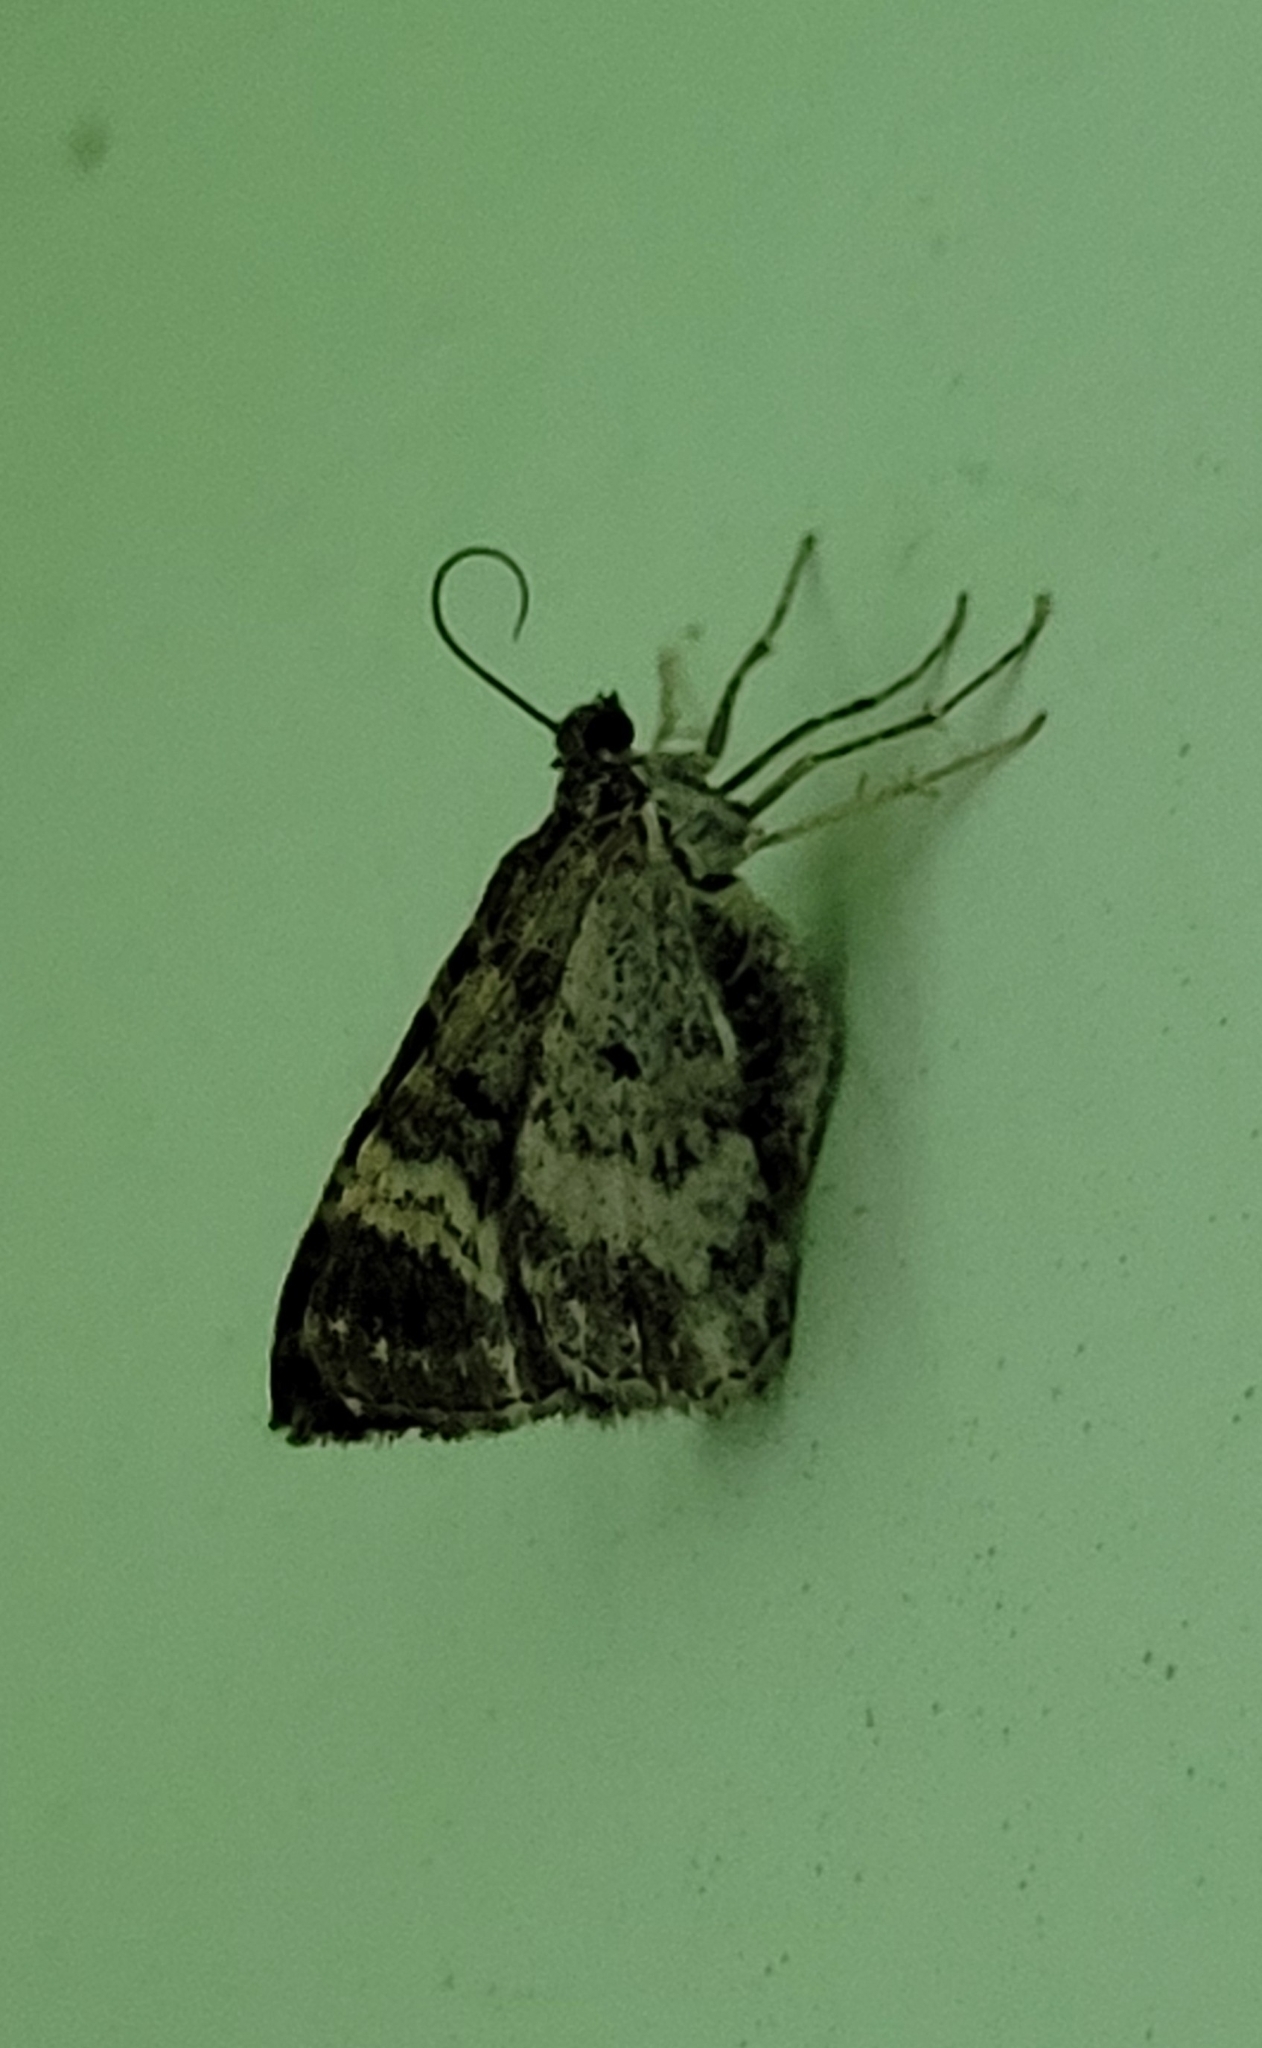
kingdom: Animalia
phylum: Arthropoda
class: Insecta
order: Lepidoptera
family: Geometridae
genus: Epirrhoe
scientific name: Epirrhoe alternata
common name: Common carpet
